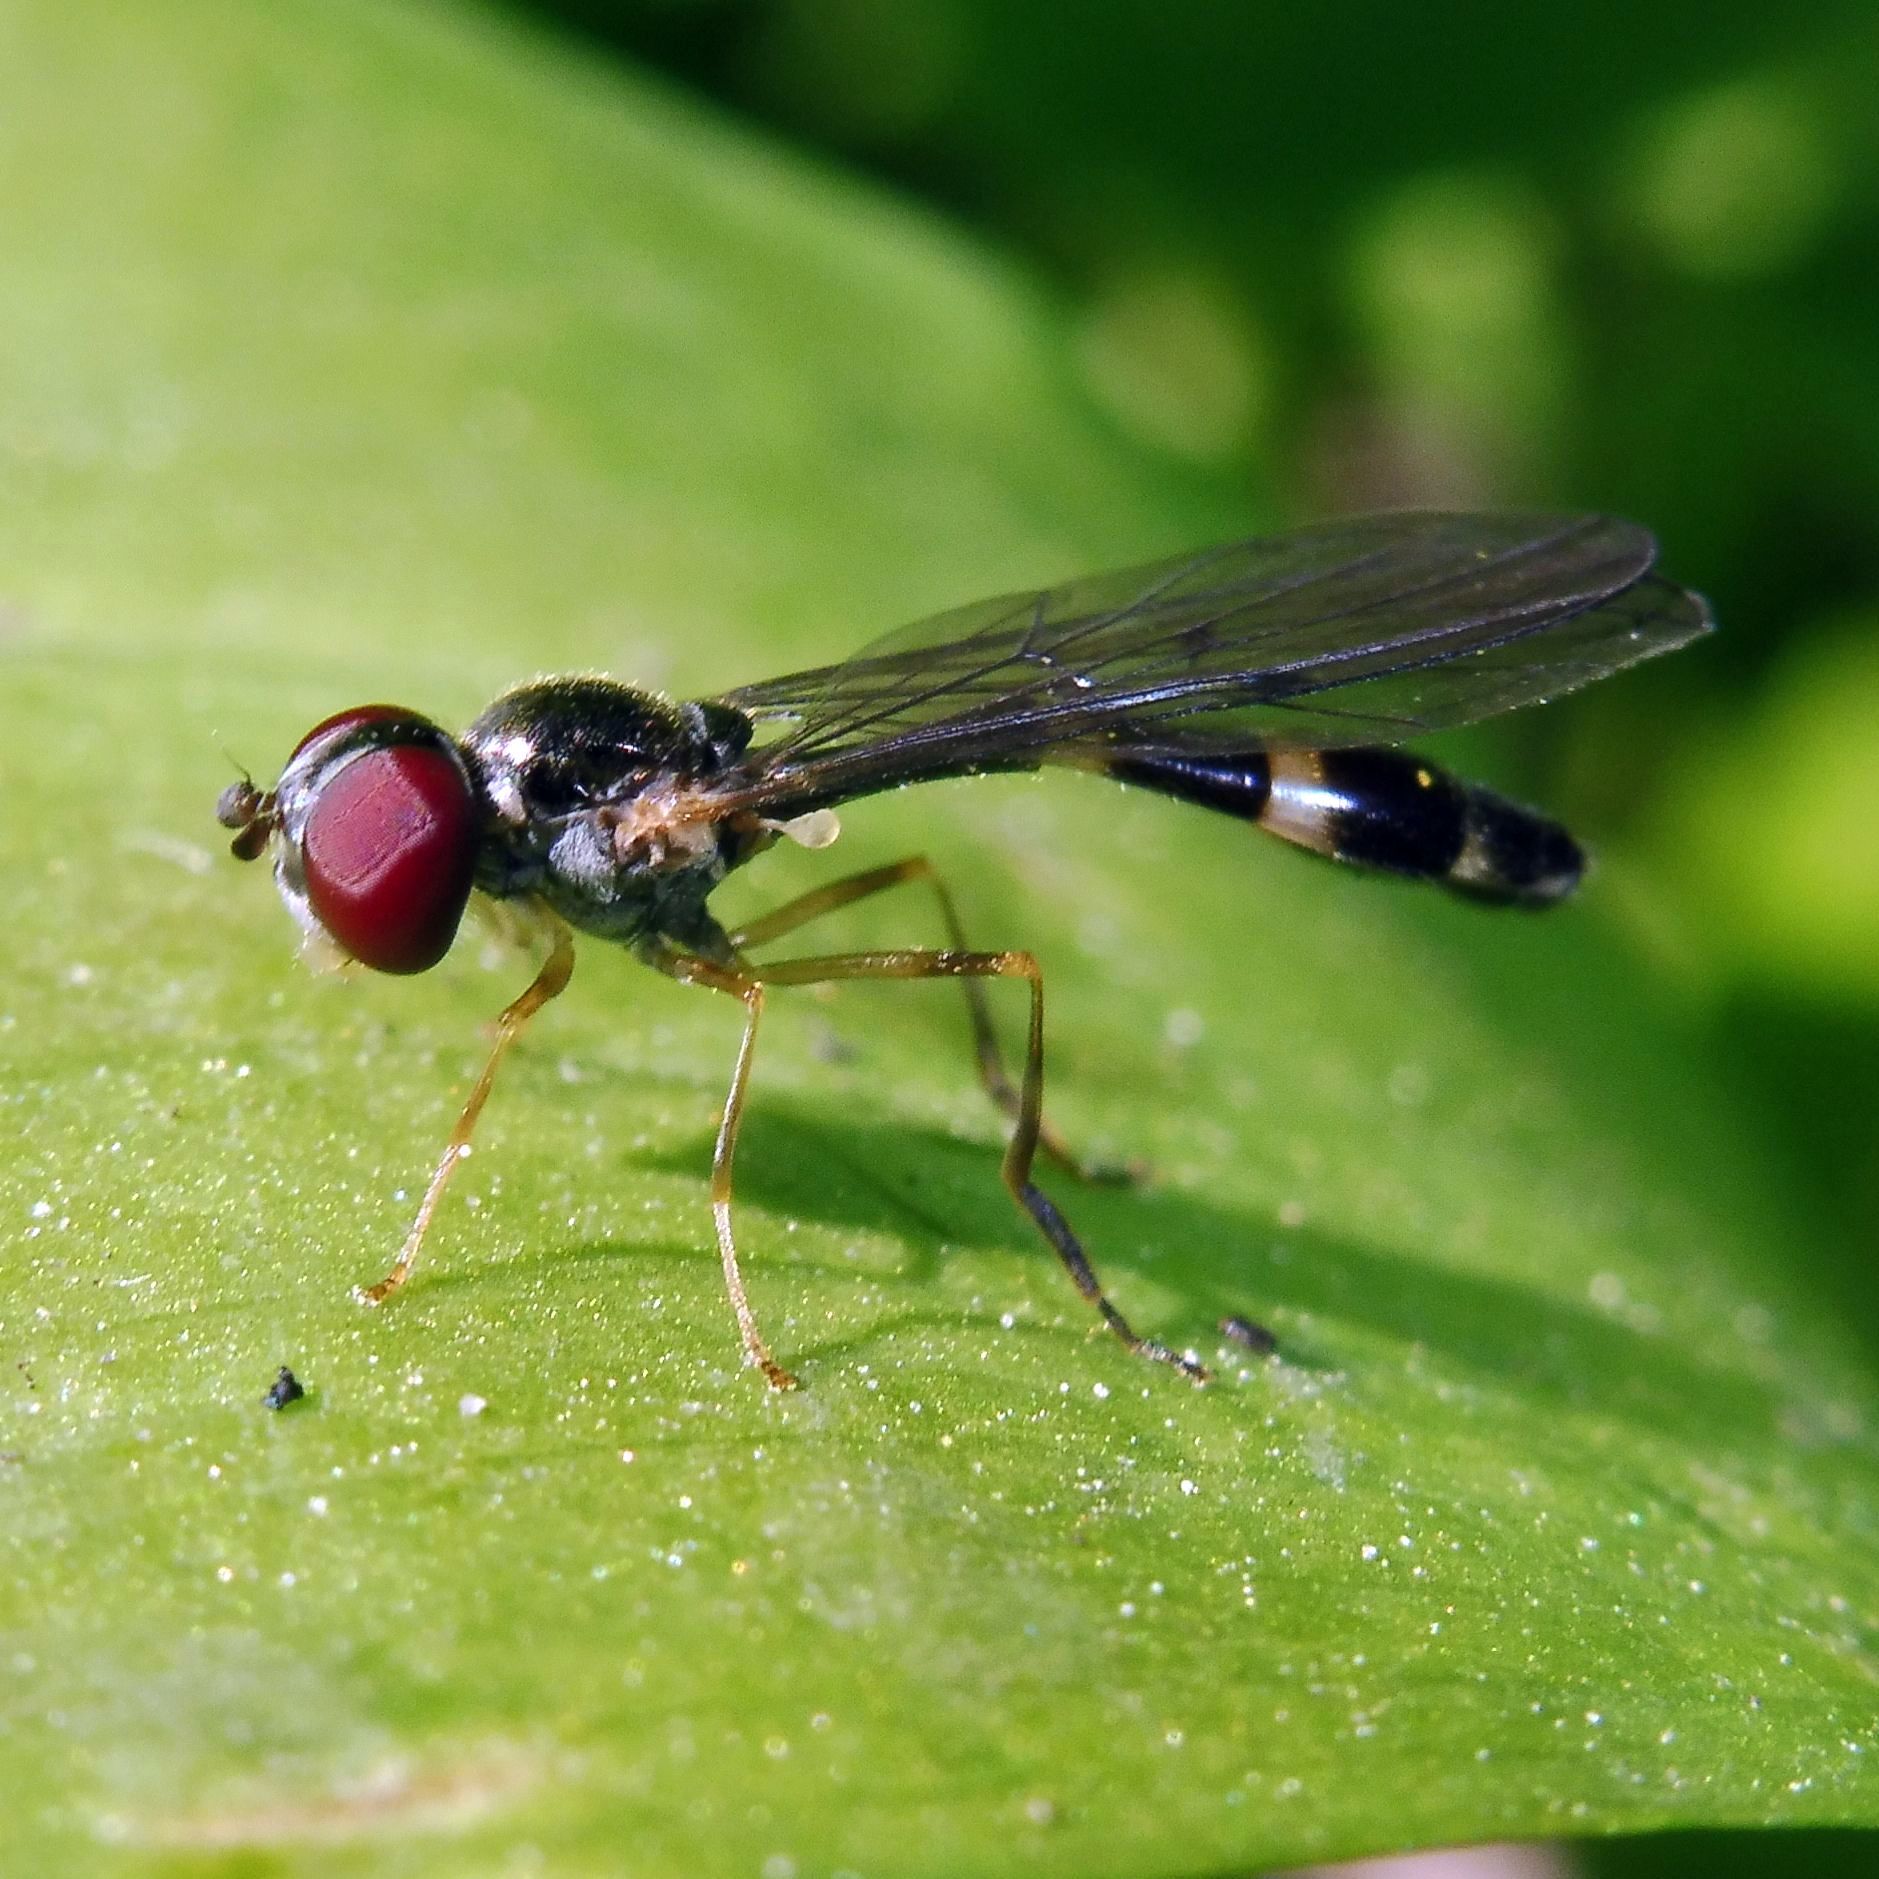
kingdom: Animalia
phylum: Arthropoda
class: Insecta
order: Diptera
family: Syrphidae
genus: Baccha
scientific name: Baccha elongata
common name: Common dainty
